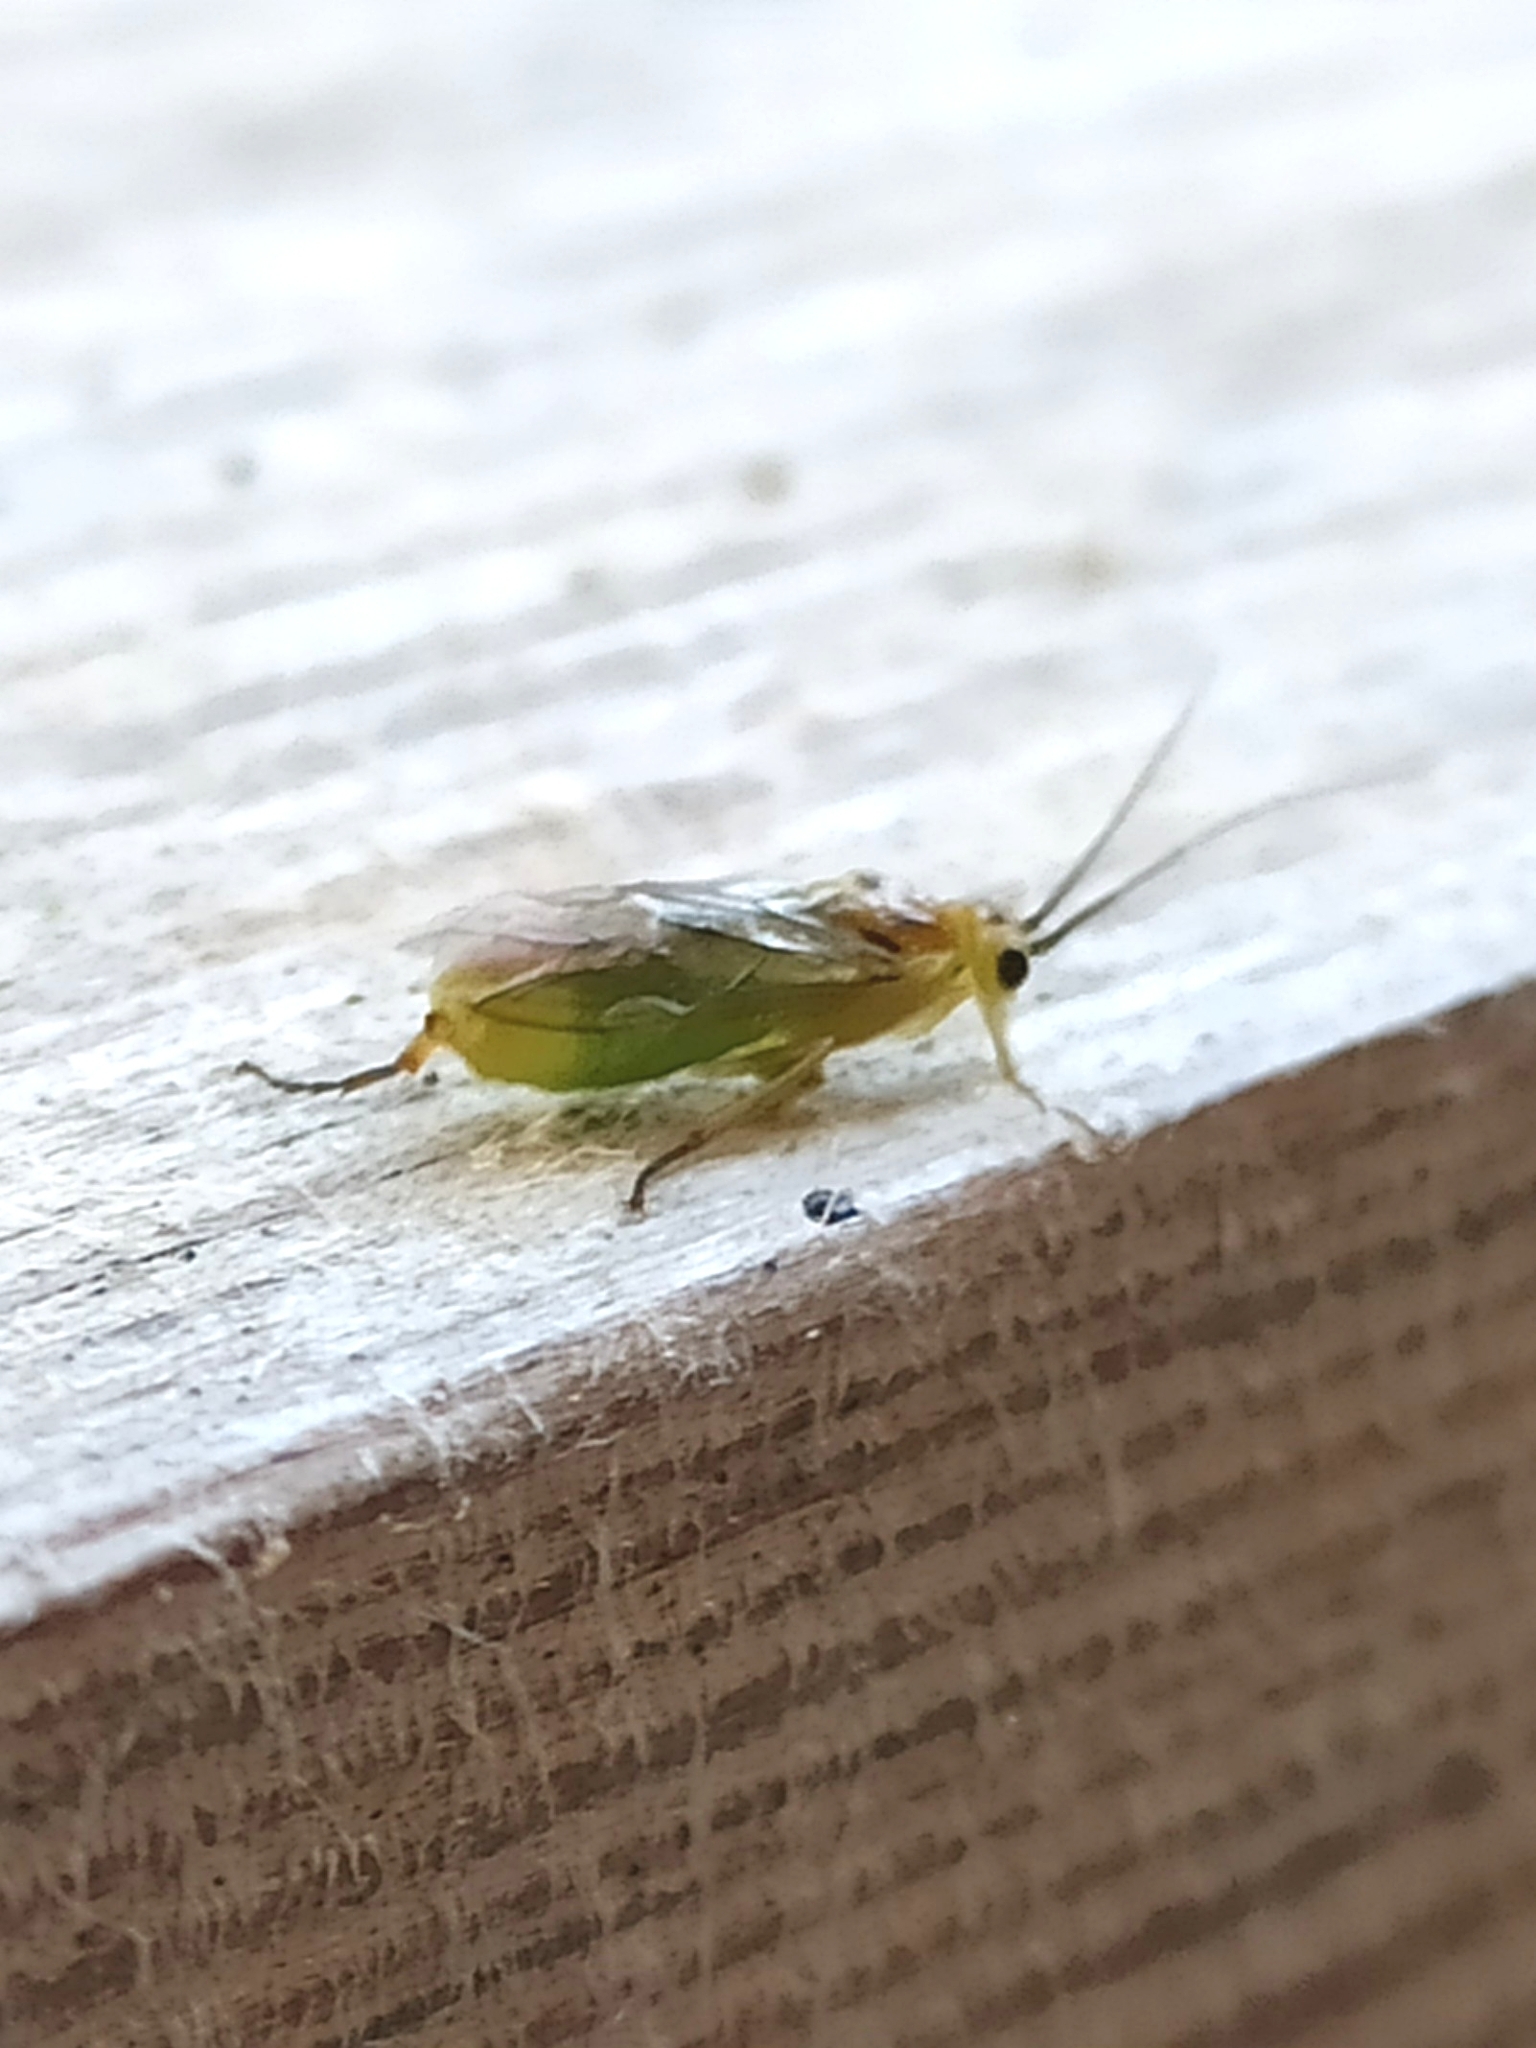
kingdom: Animalia
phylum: Arthropoda
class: Insecta
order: Hymenoptera
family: Tenthredinidae
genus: Euura
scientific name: Euura
